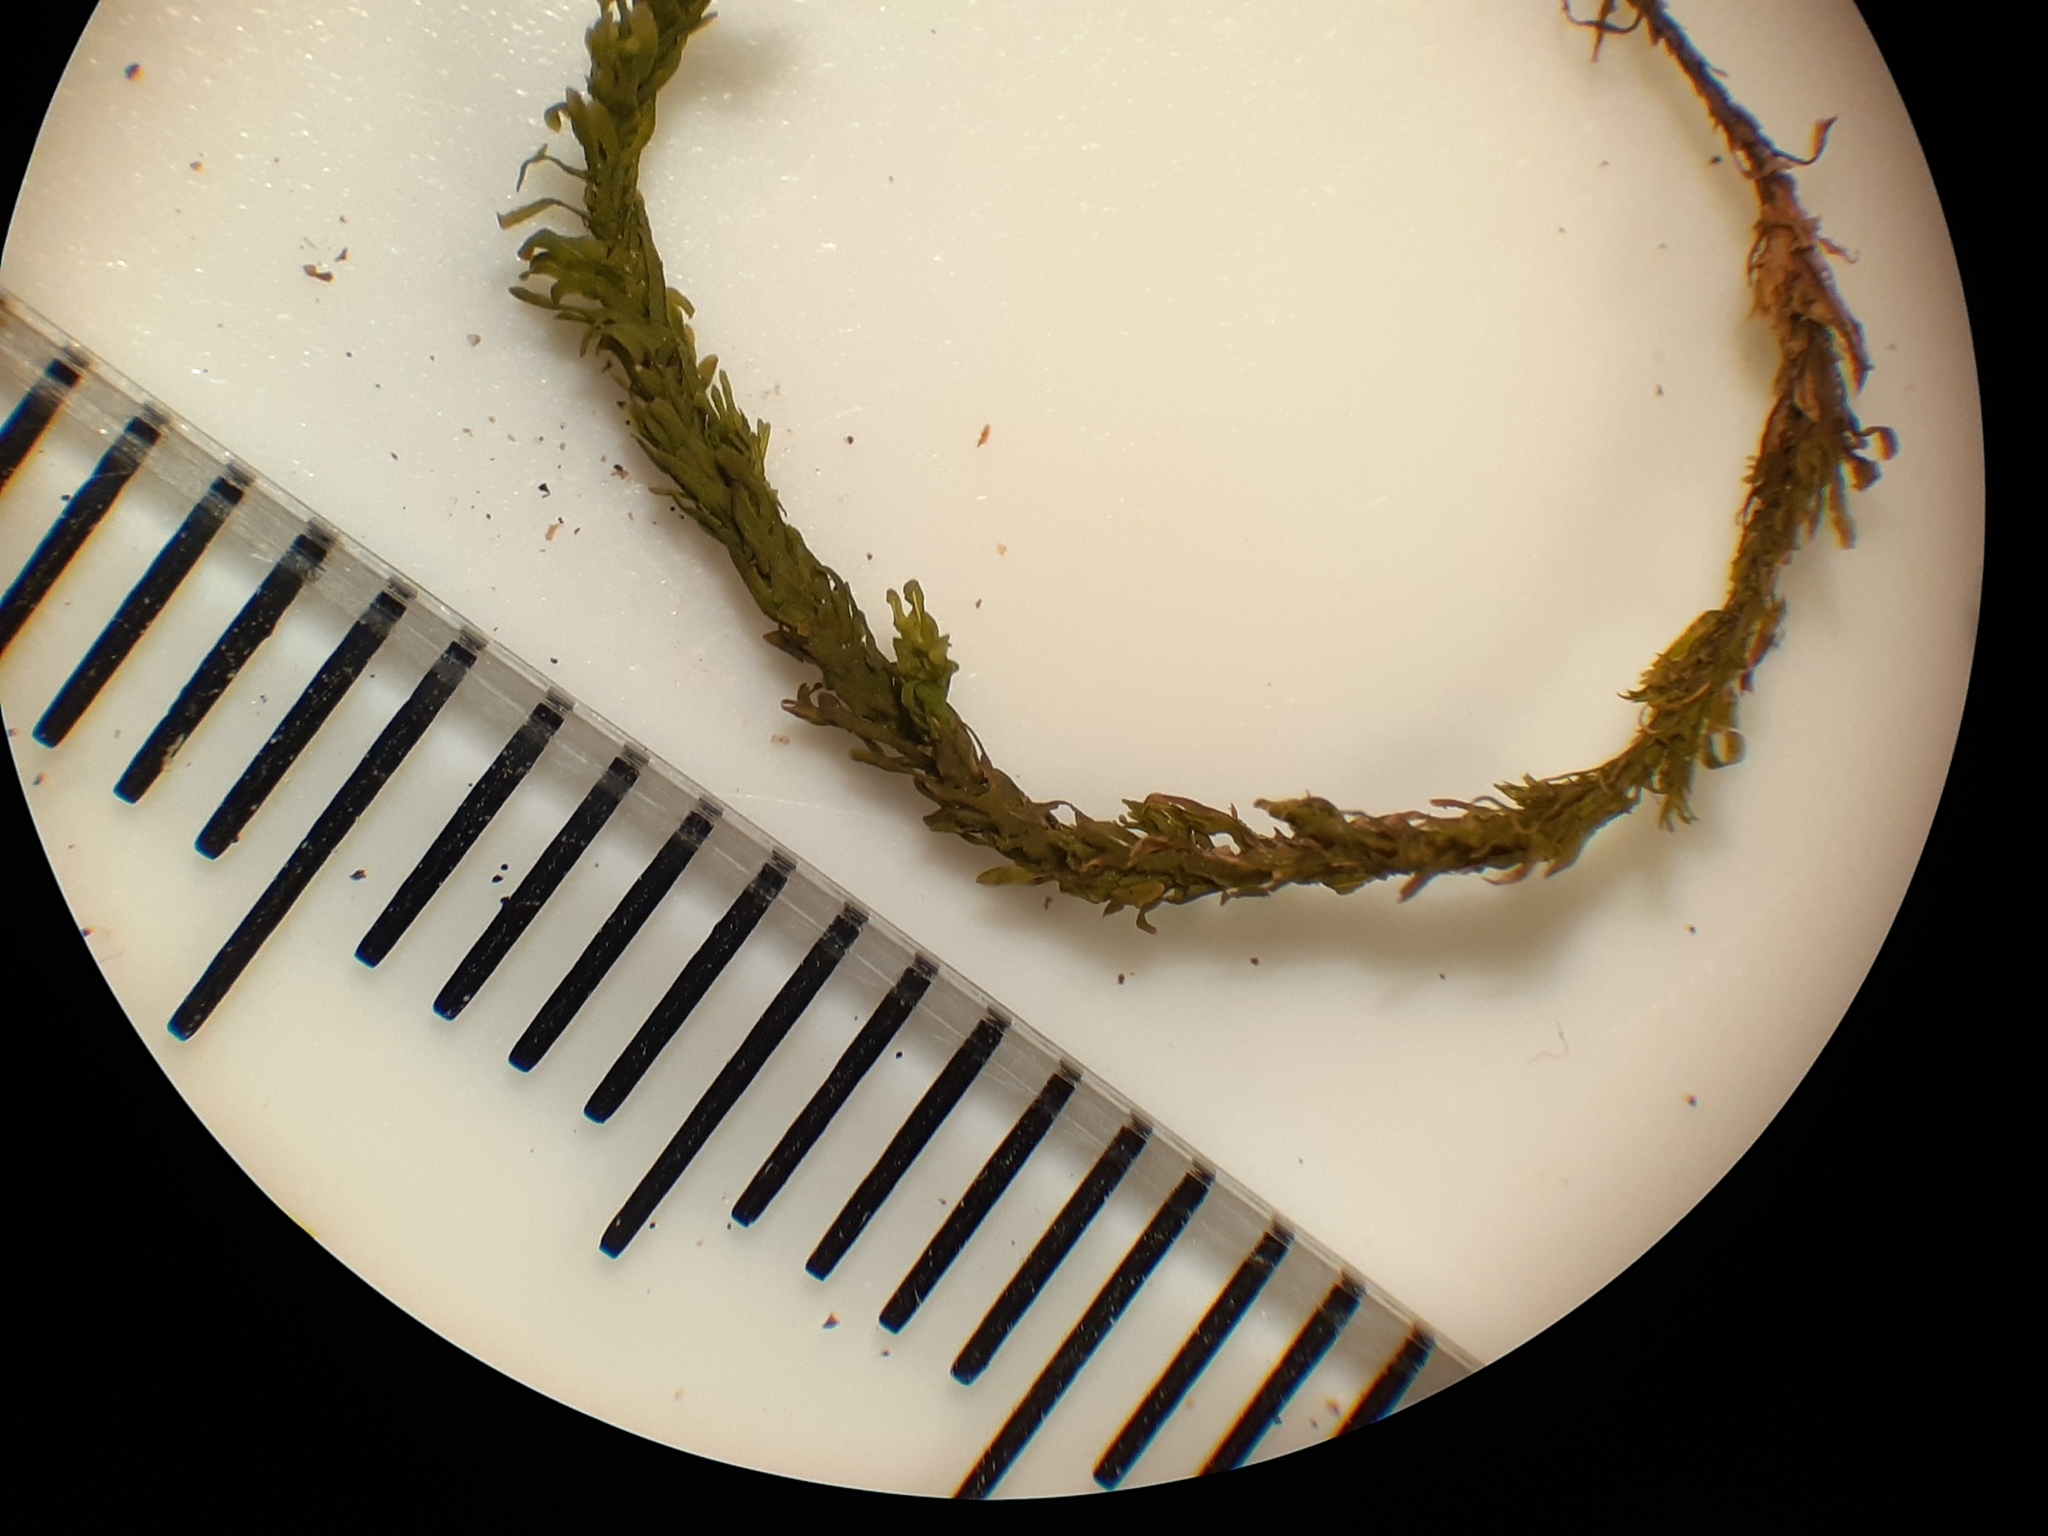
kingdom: Plantae
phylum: Bryophyta
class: Bryopsida
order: Hypnales
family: Anomodontaceae
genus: Anomodon
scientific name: Anomodon minor
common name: Blunt-leaved anomodon
